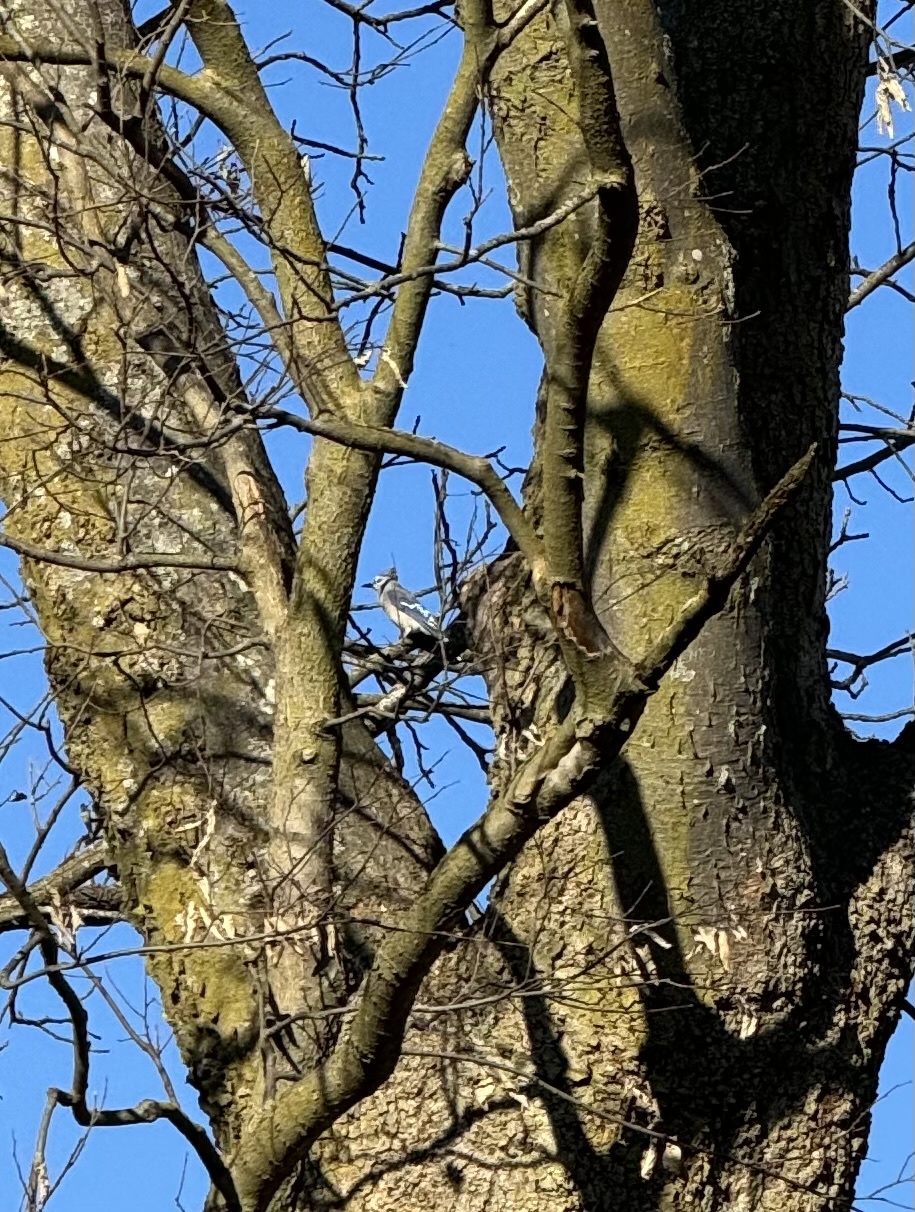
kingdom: Animalia
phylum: Chordata
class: Aves
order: Passeriformes
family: Corvidae
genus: Cyanocitta
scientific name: Cyanocitta cristata
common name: Blue jay
